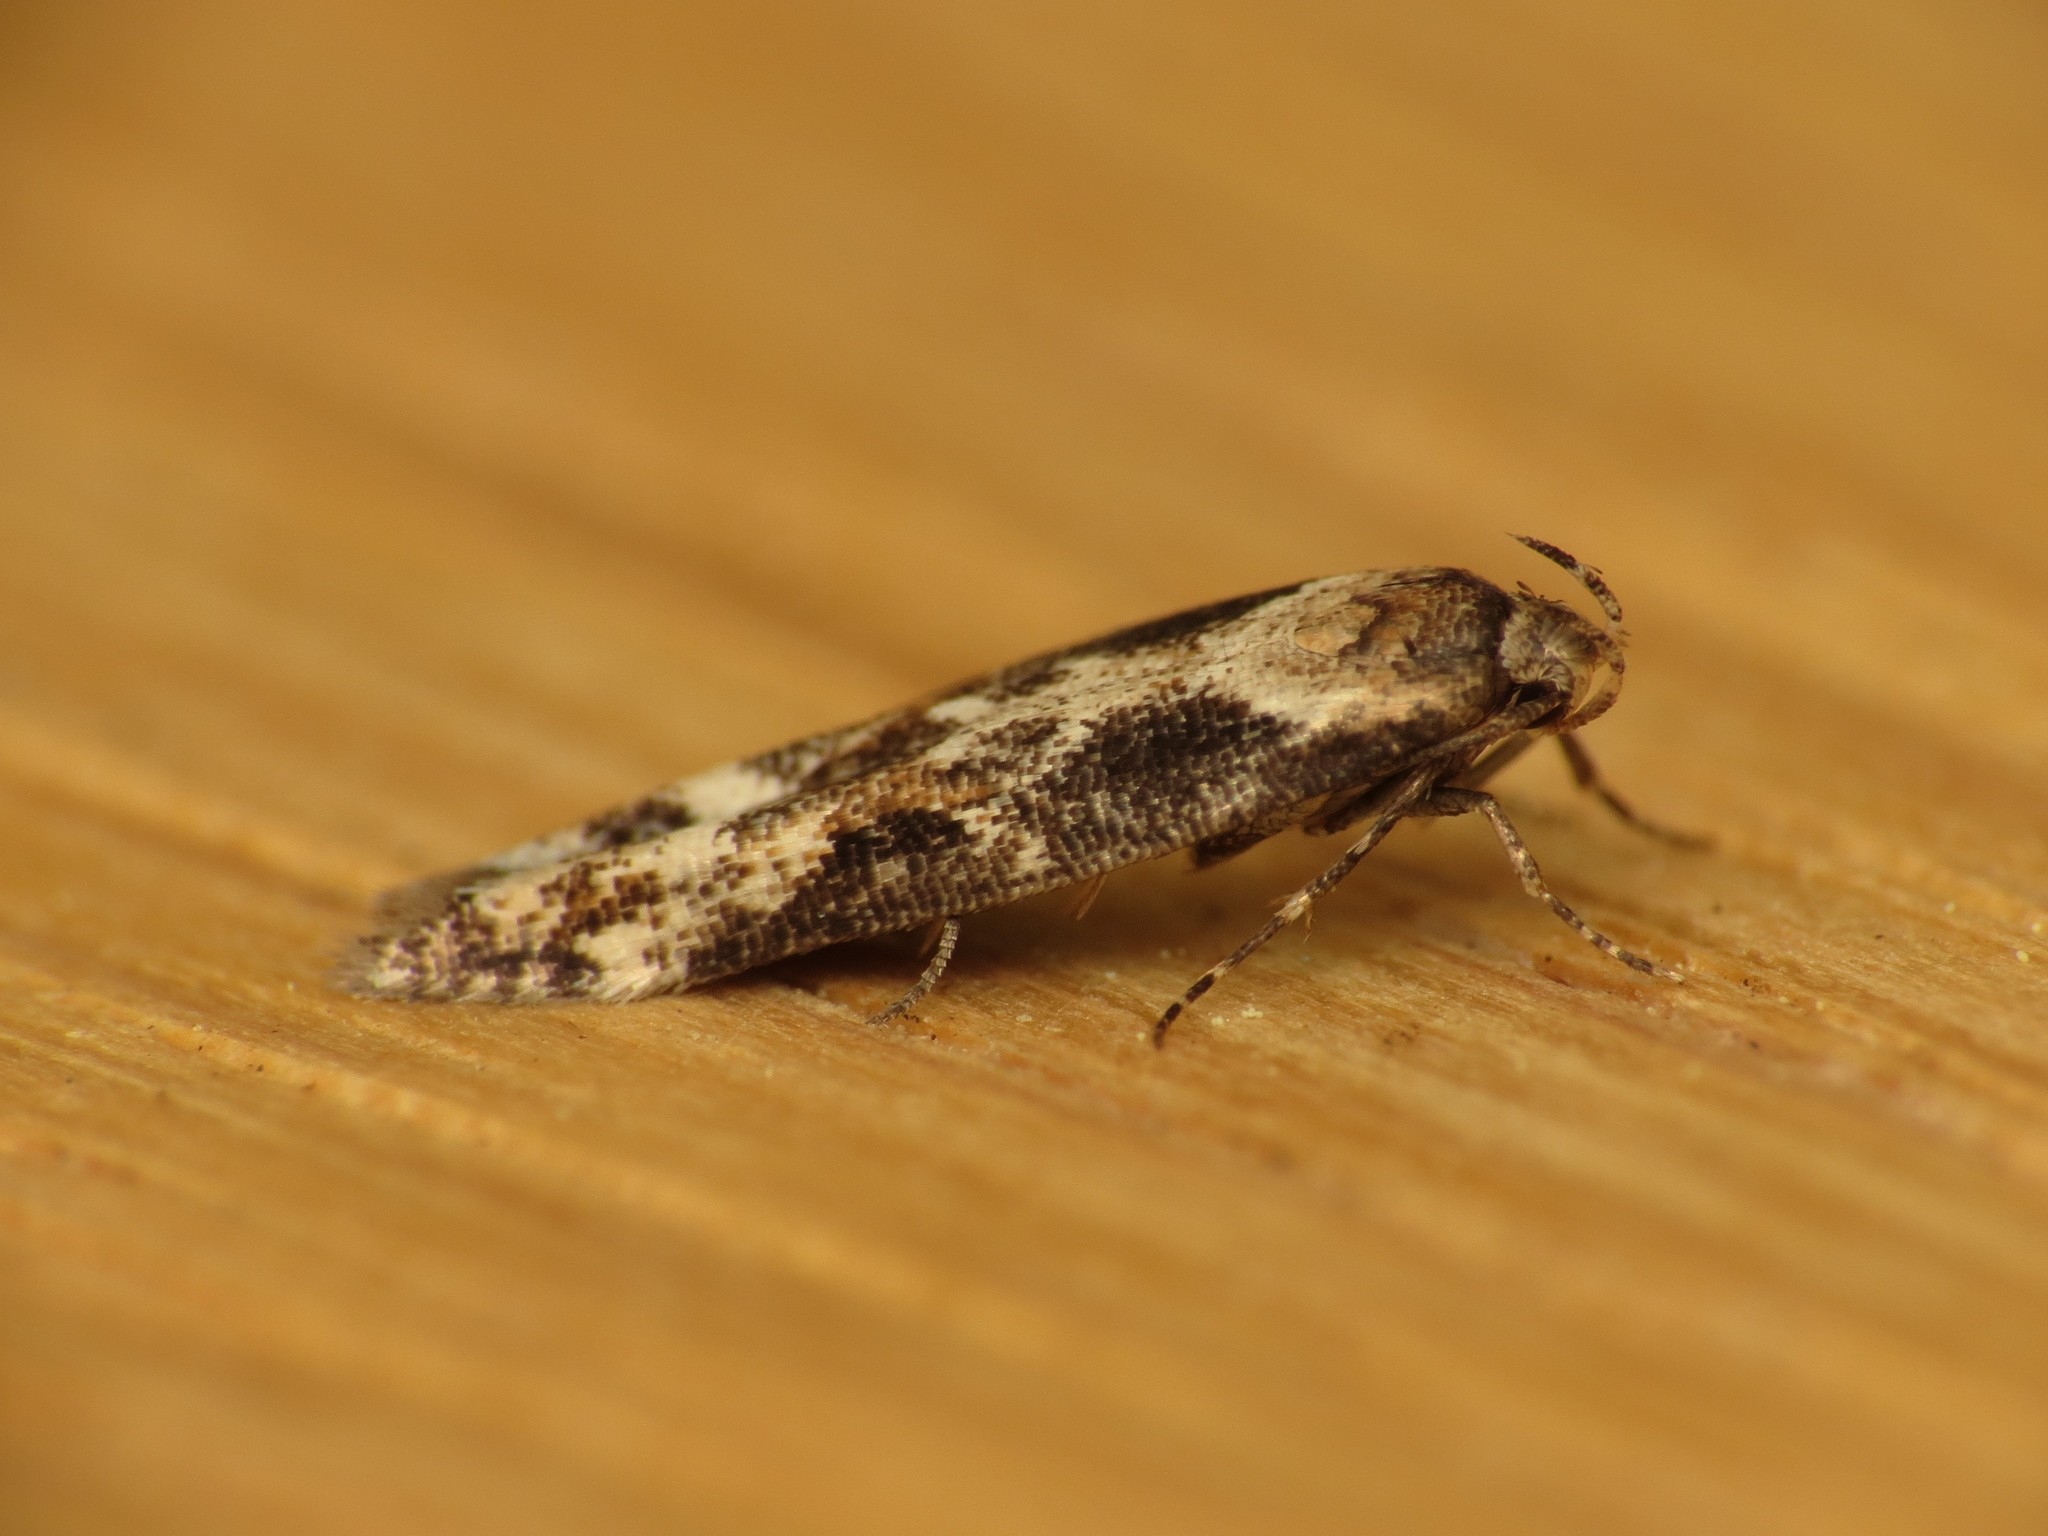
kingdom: Animalia
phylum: Arthropoda
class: Insecta
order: Lepidoptera
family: Momphidae
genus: Mompha
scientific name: Mompha decorella
